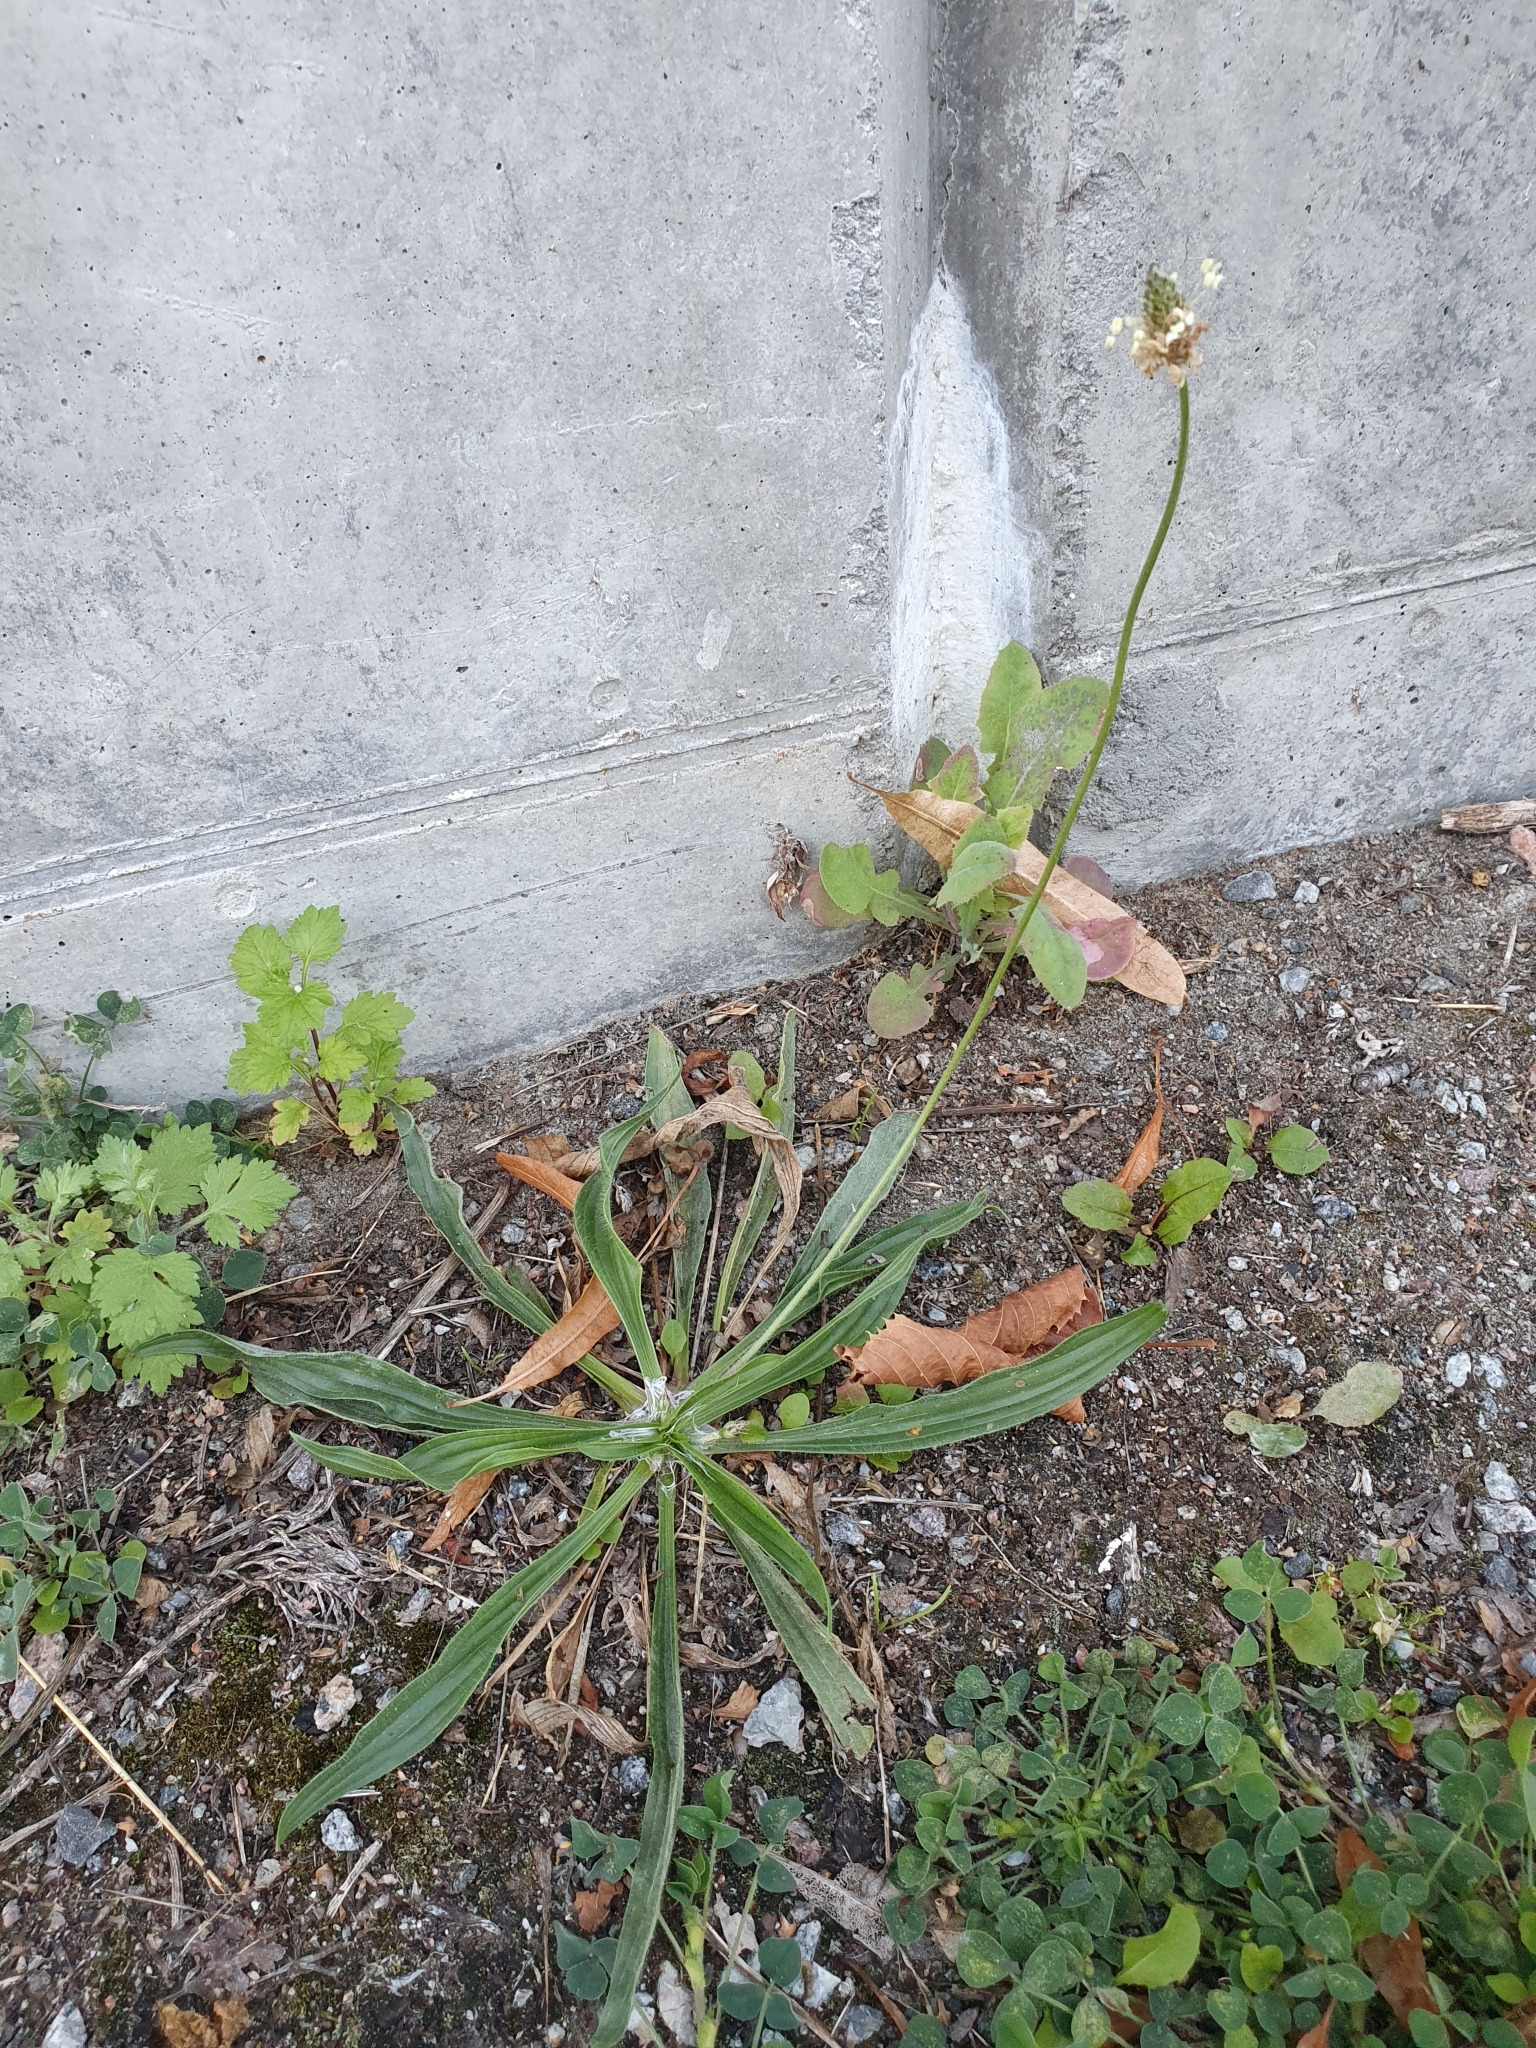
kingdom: Plantae
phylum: Tracheophyta
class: Magnoliopsida
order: Lamiales
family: Plantaginaceae
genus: Plantago
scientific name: Plantago lanceolata
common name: Ribwort plantain
